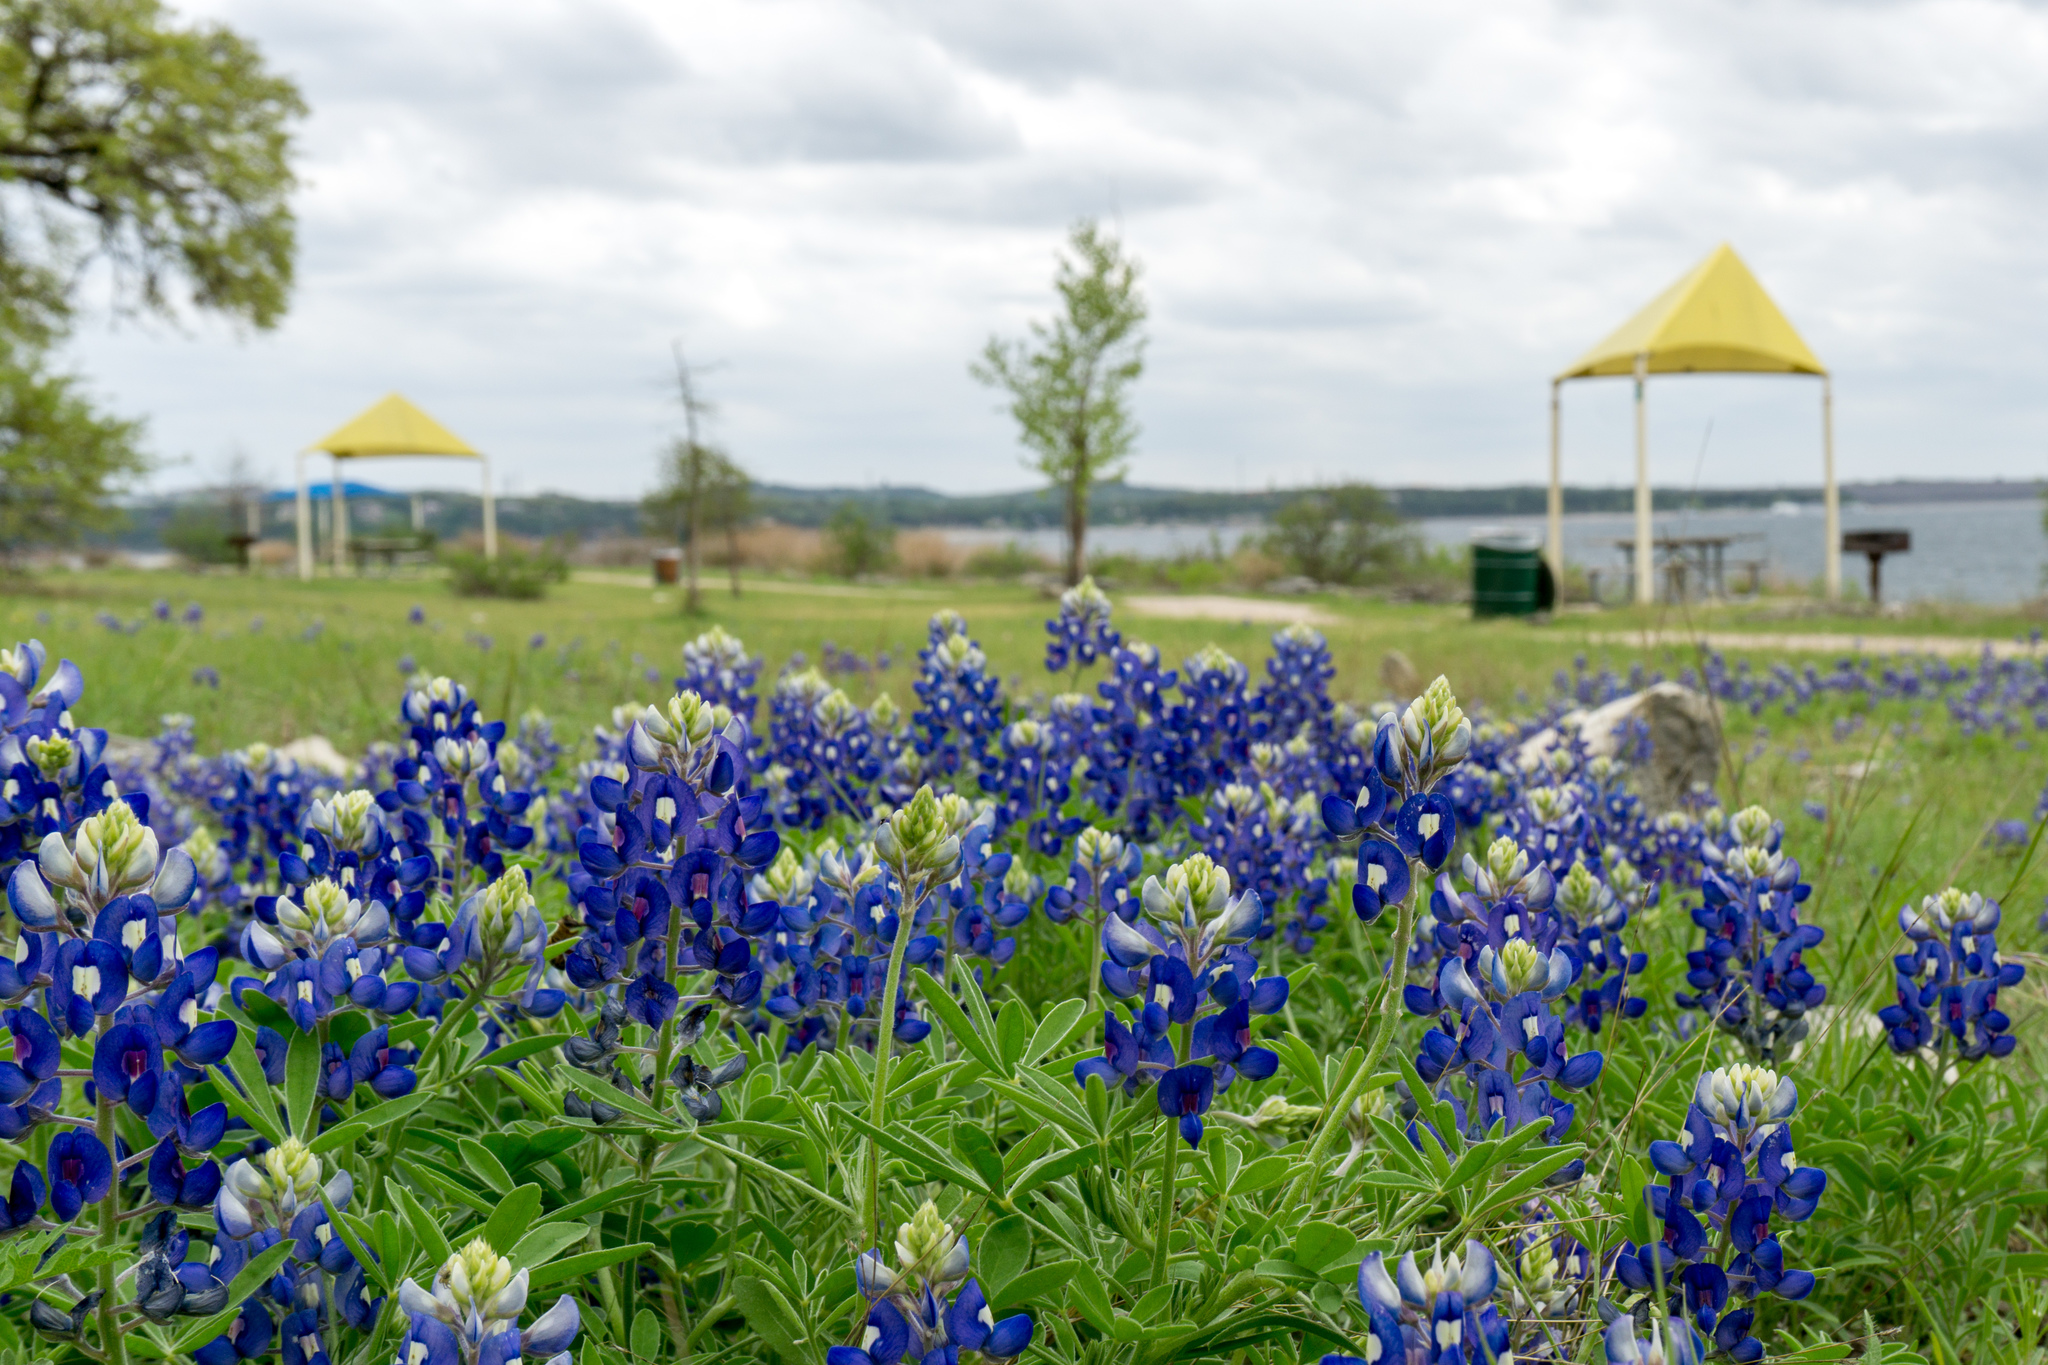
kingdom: Plantae
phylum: Tracheophyta
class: Magnoliopsida
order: Fabales
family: Fabaceae
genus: Lupinus
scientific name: Lupinus texensis
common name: Texas bluebonnet
